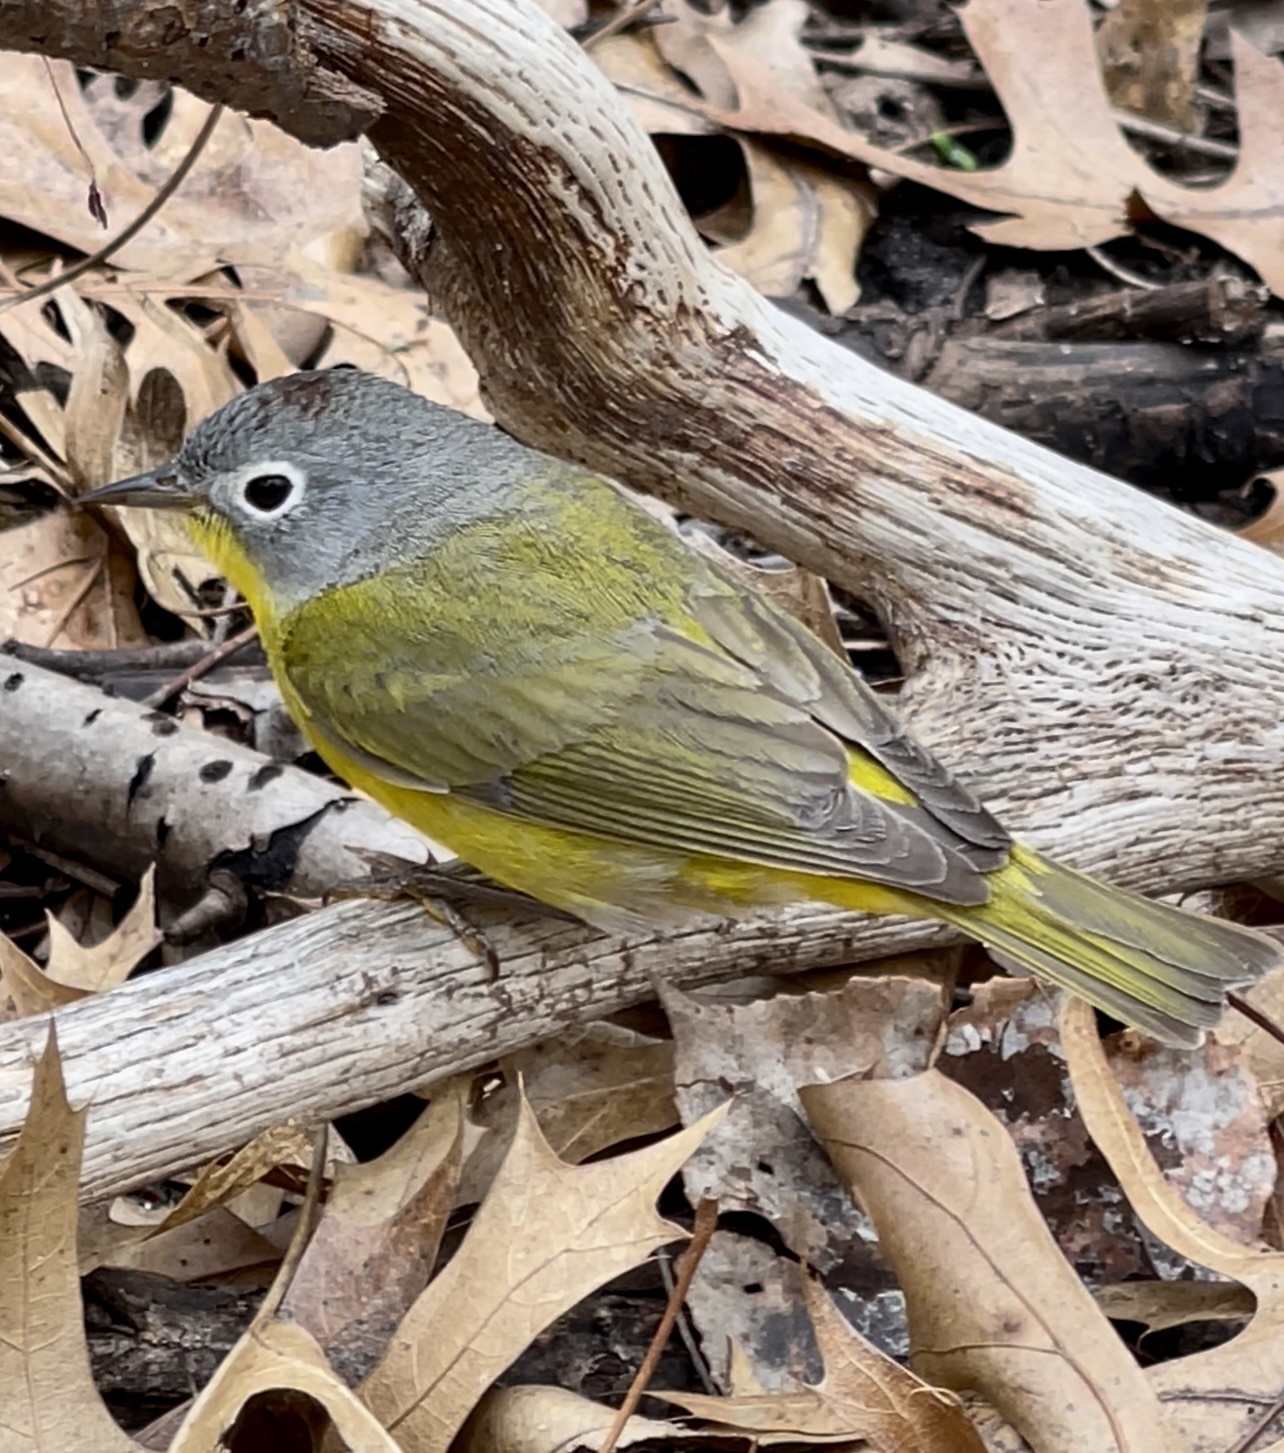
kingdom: Animalia
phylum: Chordata
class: Aves
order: Passeriformes
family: Parulidae
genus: Leiothlypis
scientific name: Leiothlypis ruficapilla
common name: Nashville warbler
